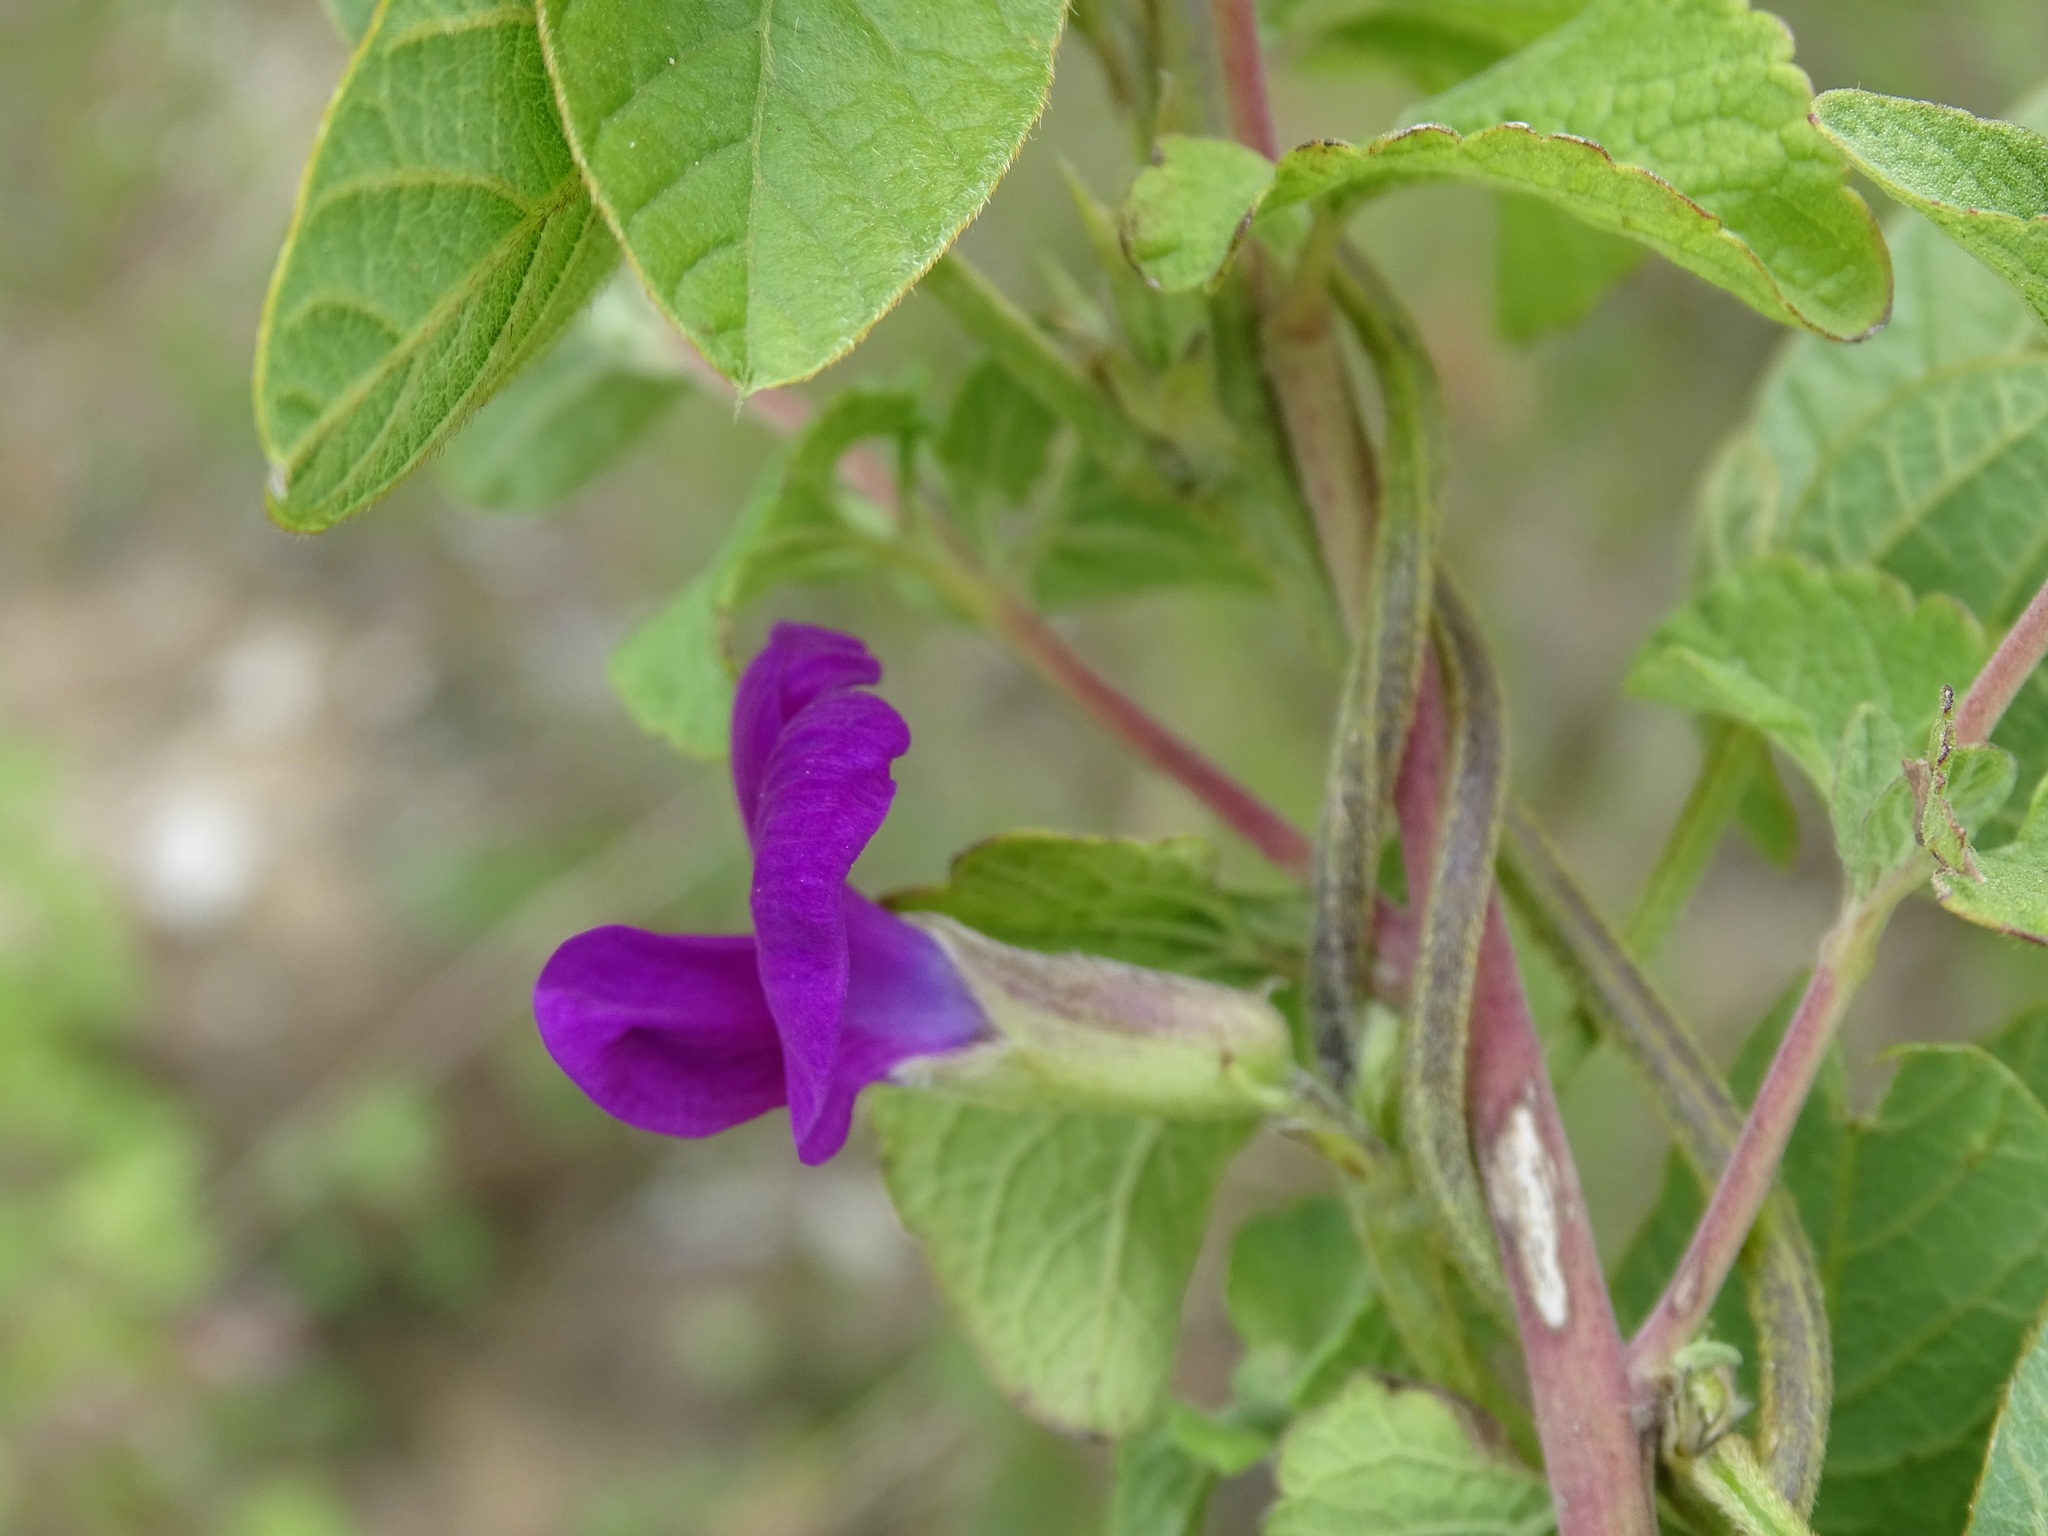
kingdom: Plantae
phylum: Tracheophyta
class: Magnoliopsida
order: Fabales
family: Fabaceae
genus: Cologania
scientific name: Cologania broussonetii
